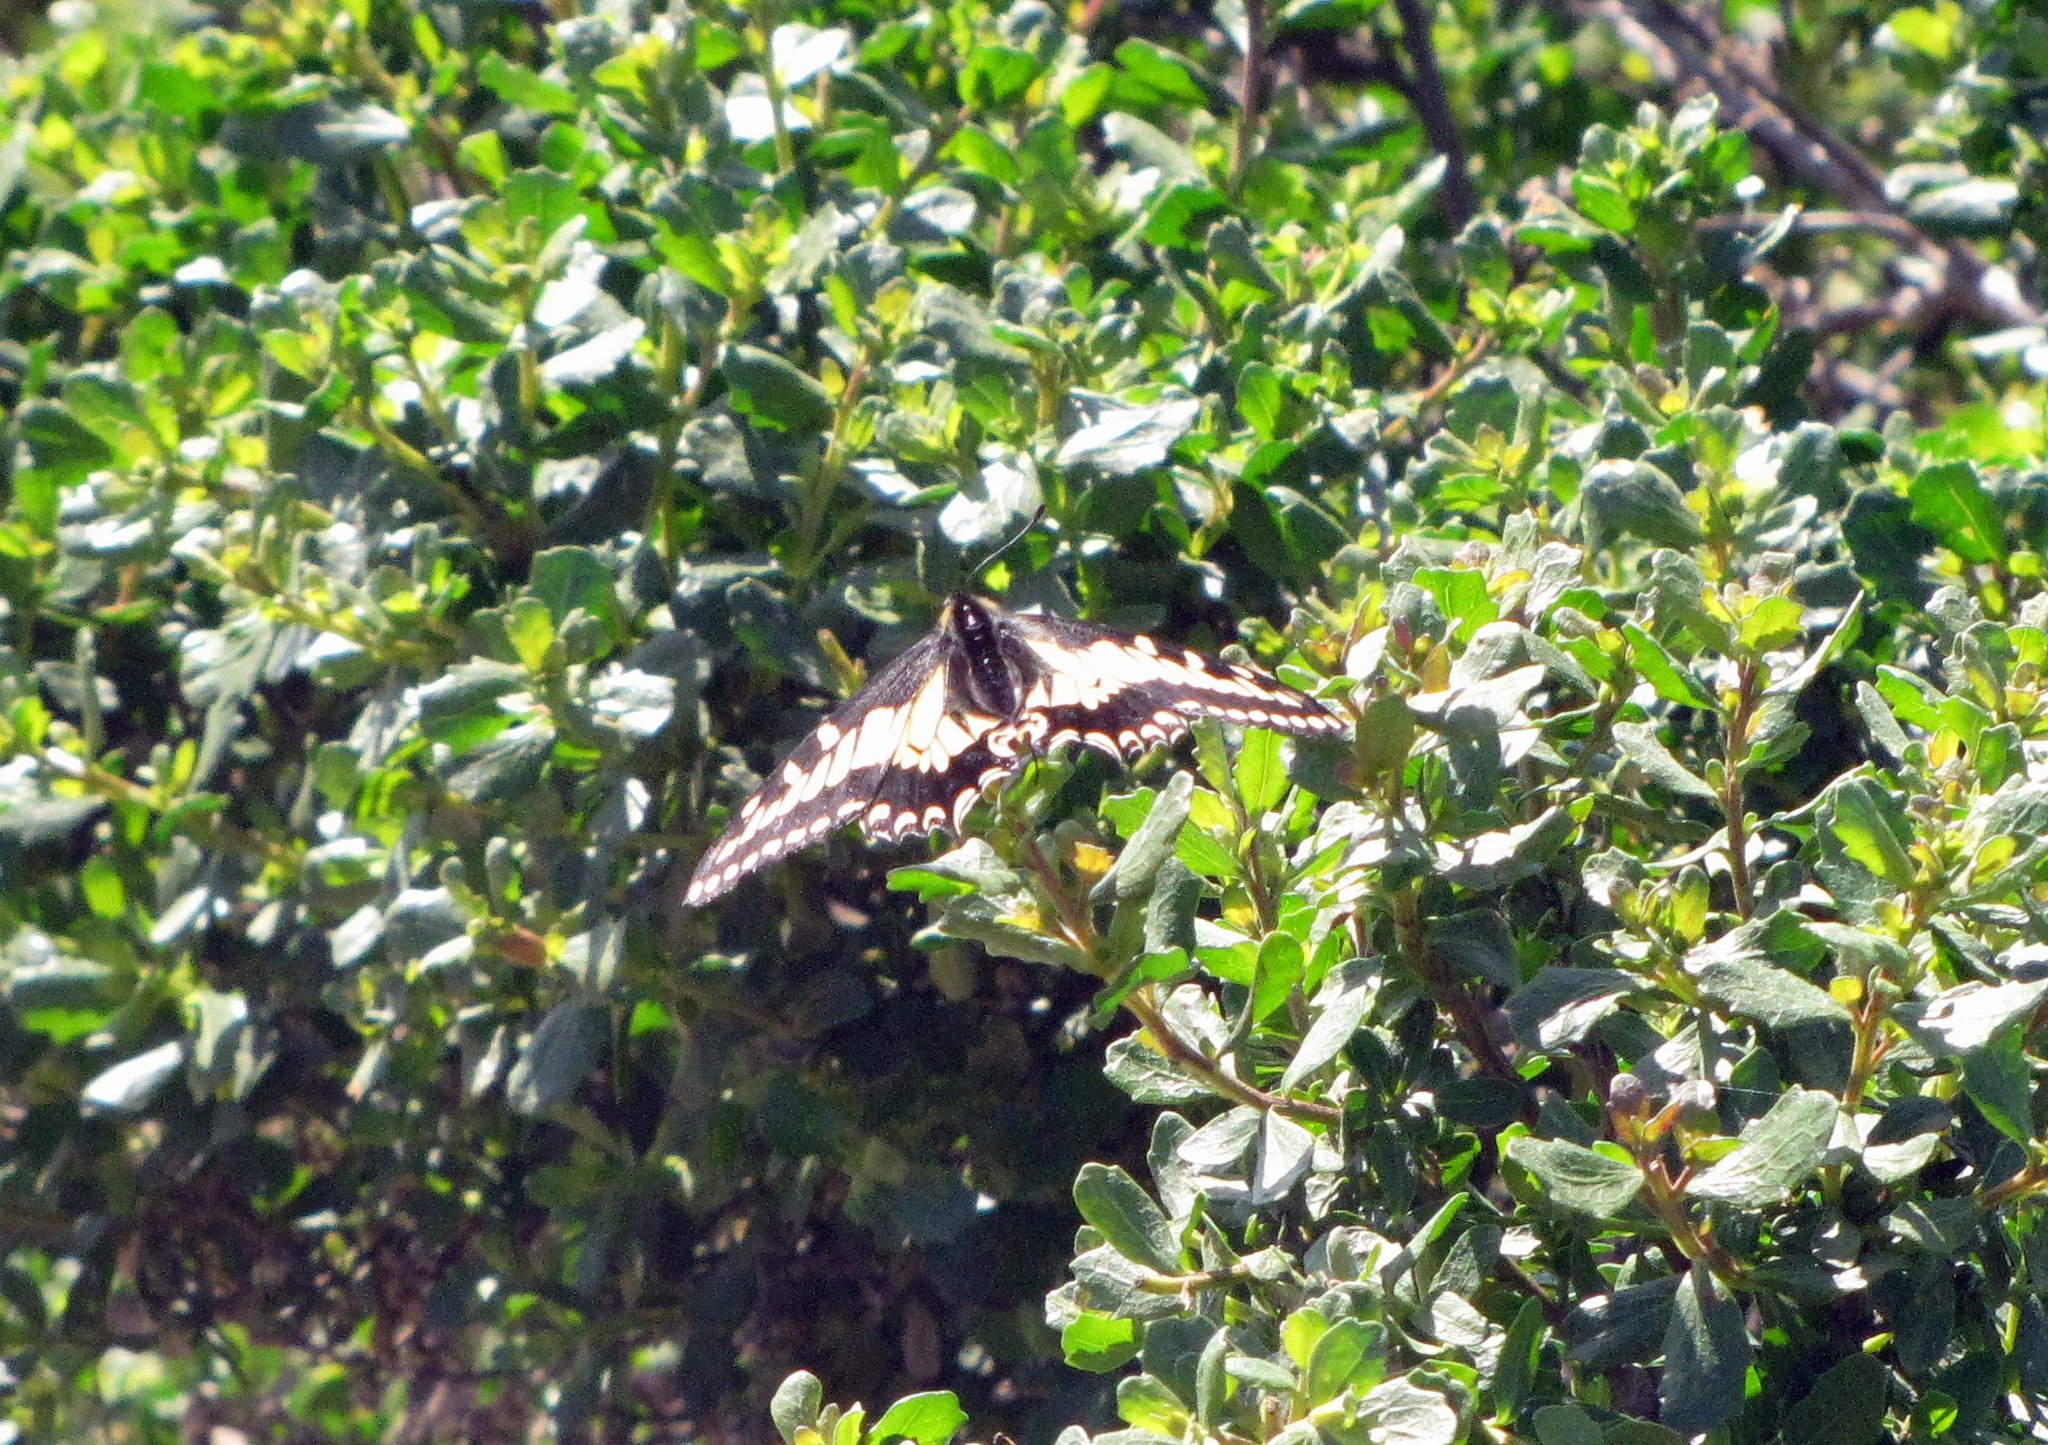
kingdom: Animalia
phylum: Arthropoda
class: Insecta
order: Lepidoptera
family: Papilionidae
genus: Papilio
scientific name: Papilio zelicaon
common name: Anise swallowtail
